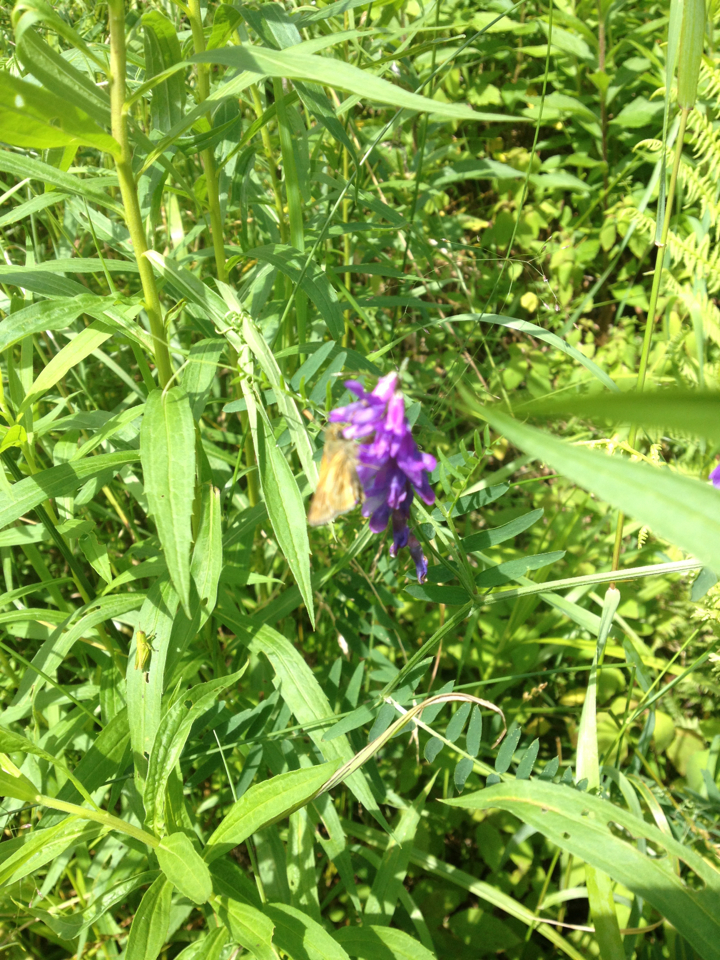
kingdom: Plantae
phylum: Tracheophyta
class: Magnoliopsida
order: Fabales
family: Fabaceae
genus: Vicia
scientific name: Vicia cracca
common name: Bird vetch
